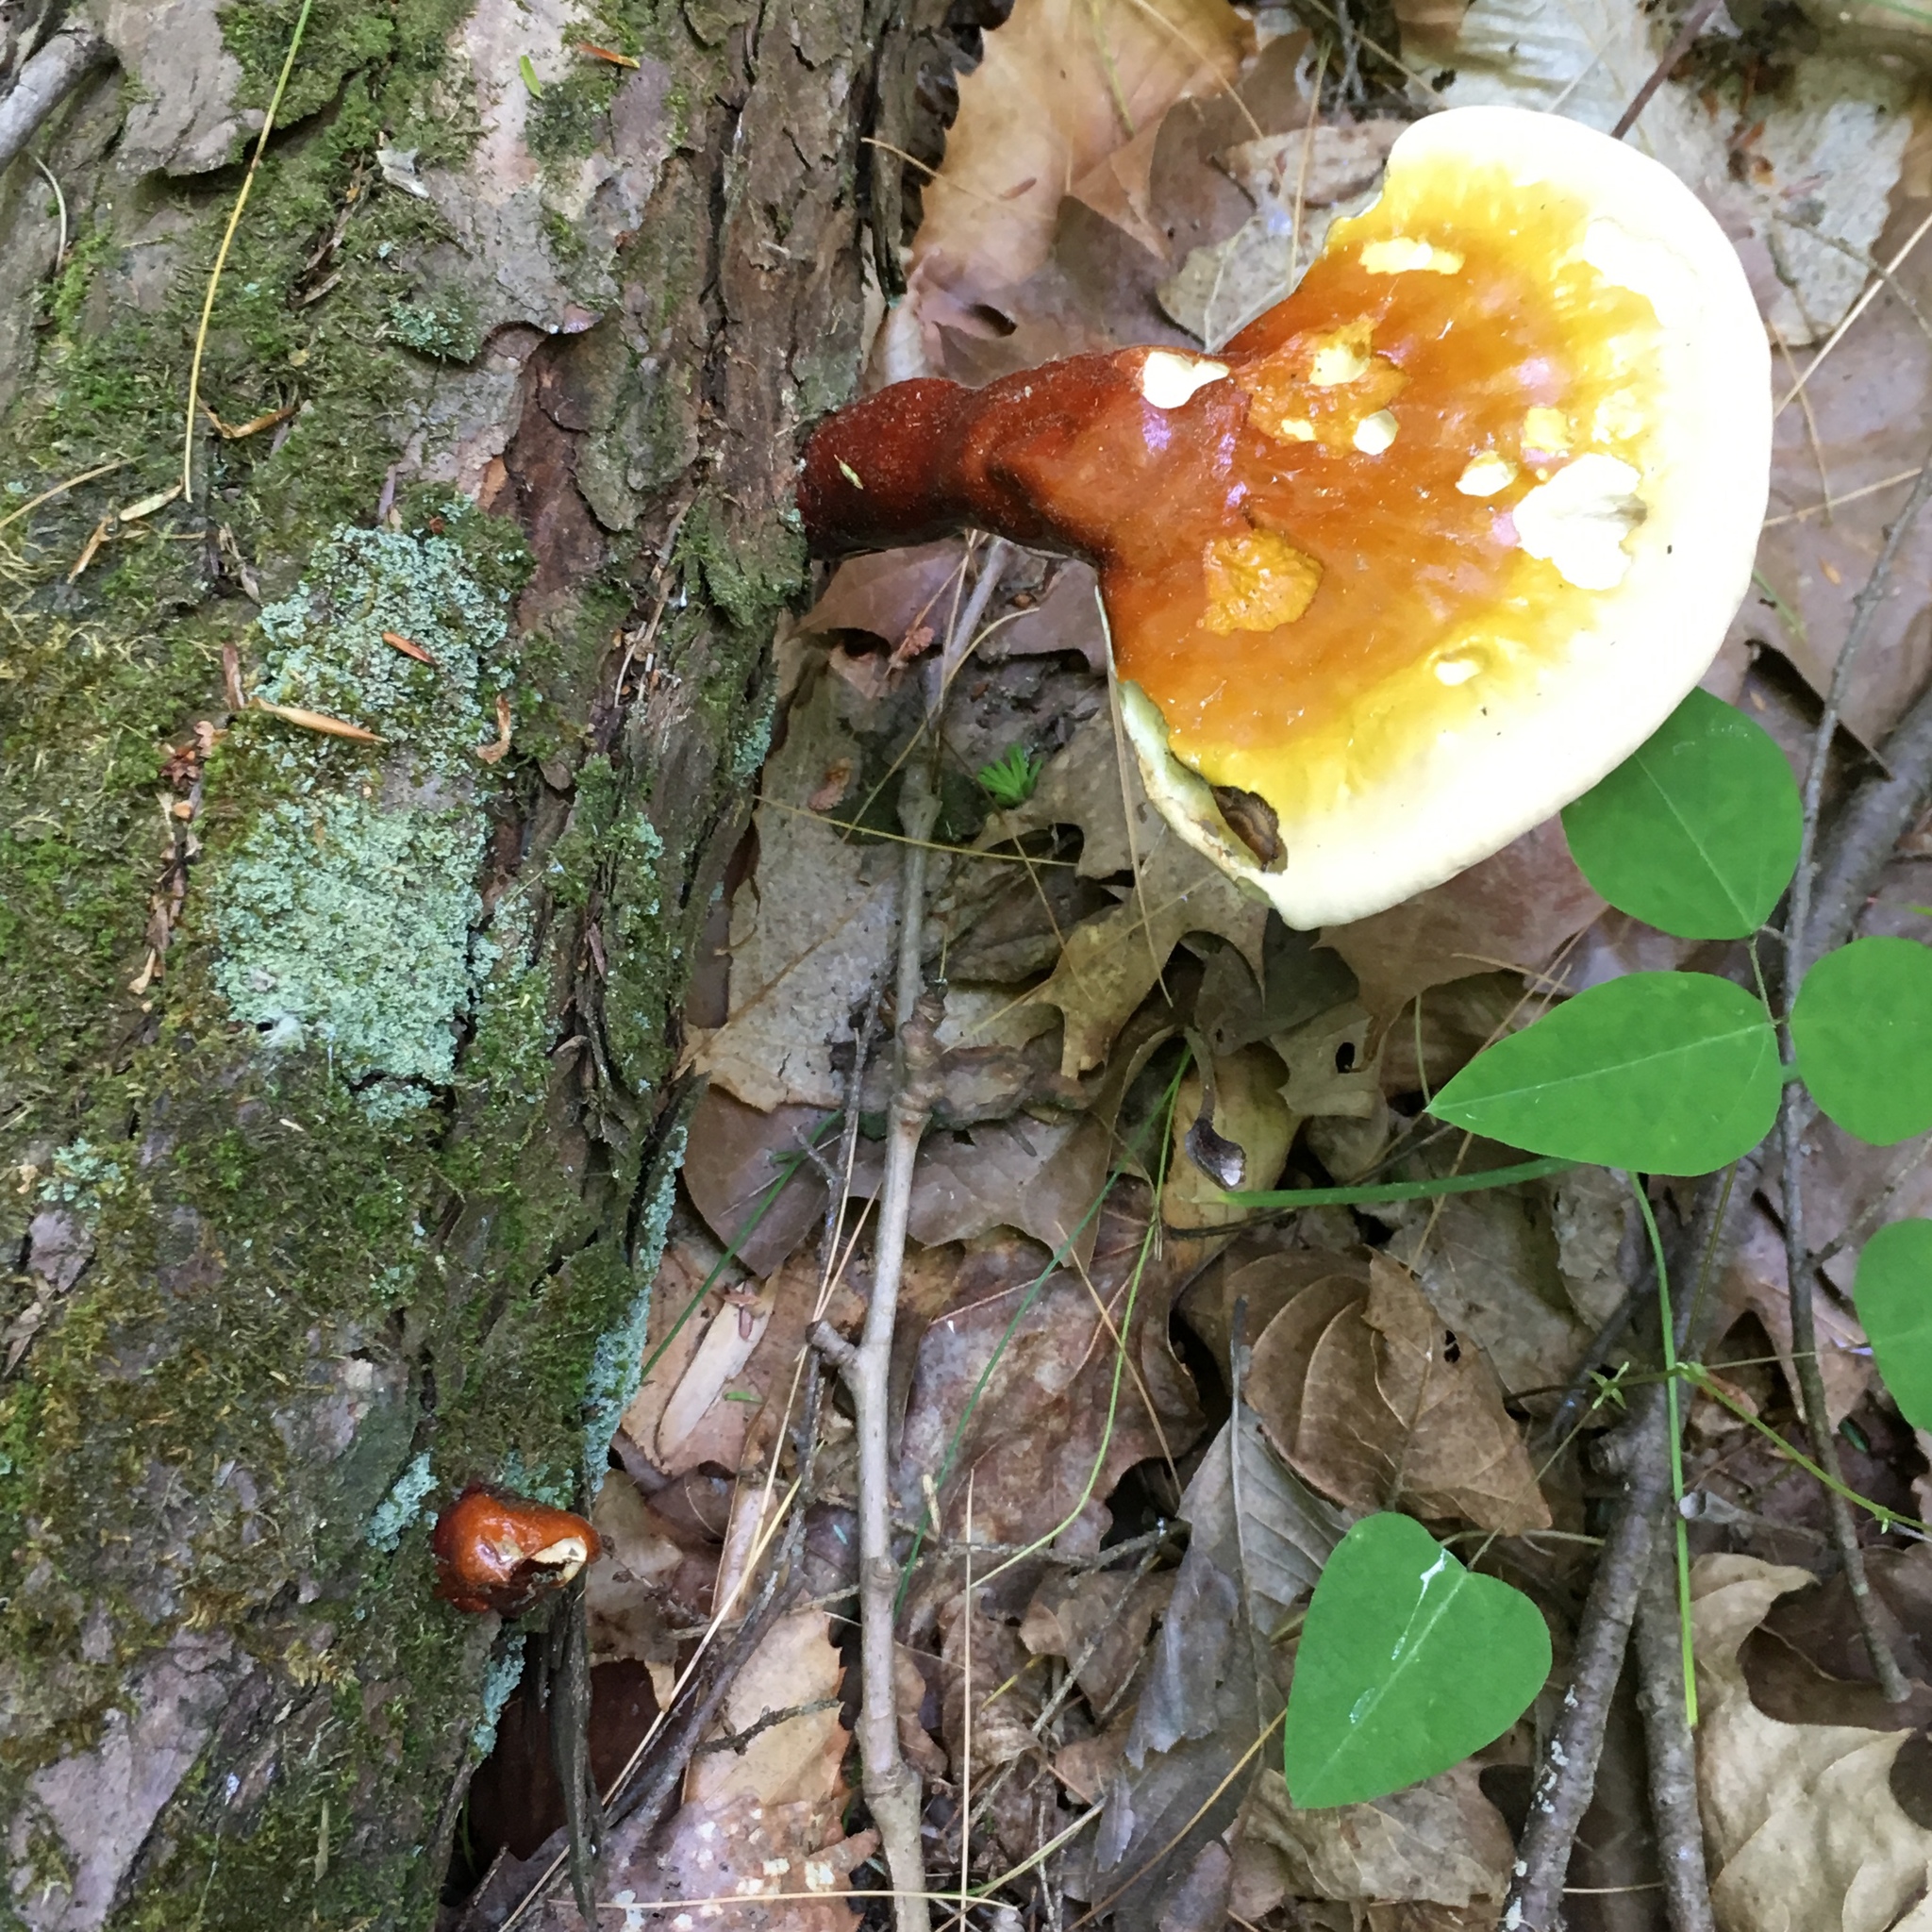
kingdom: Fungi
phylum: Basidiomycota
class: Agaricomycetes
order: Polyporales
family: Polyporaceae
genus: Ganoderma
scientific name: Ganoderma tsugae
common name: Hemlock varnish shelf
